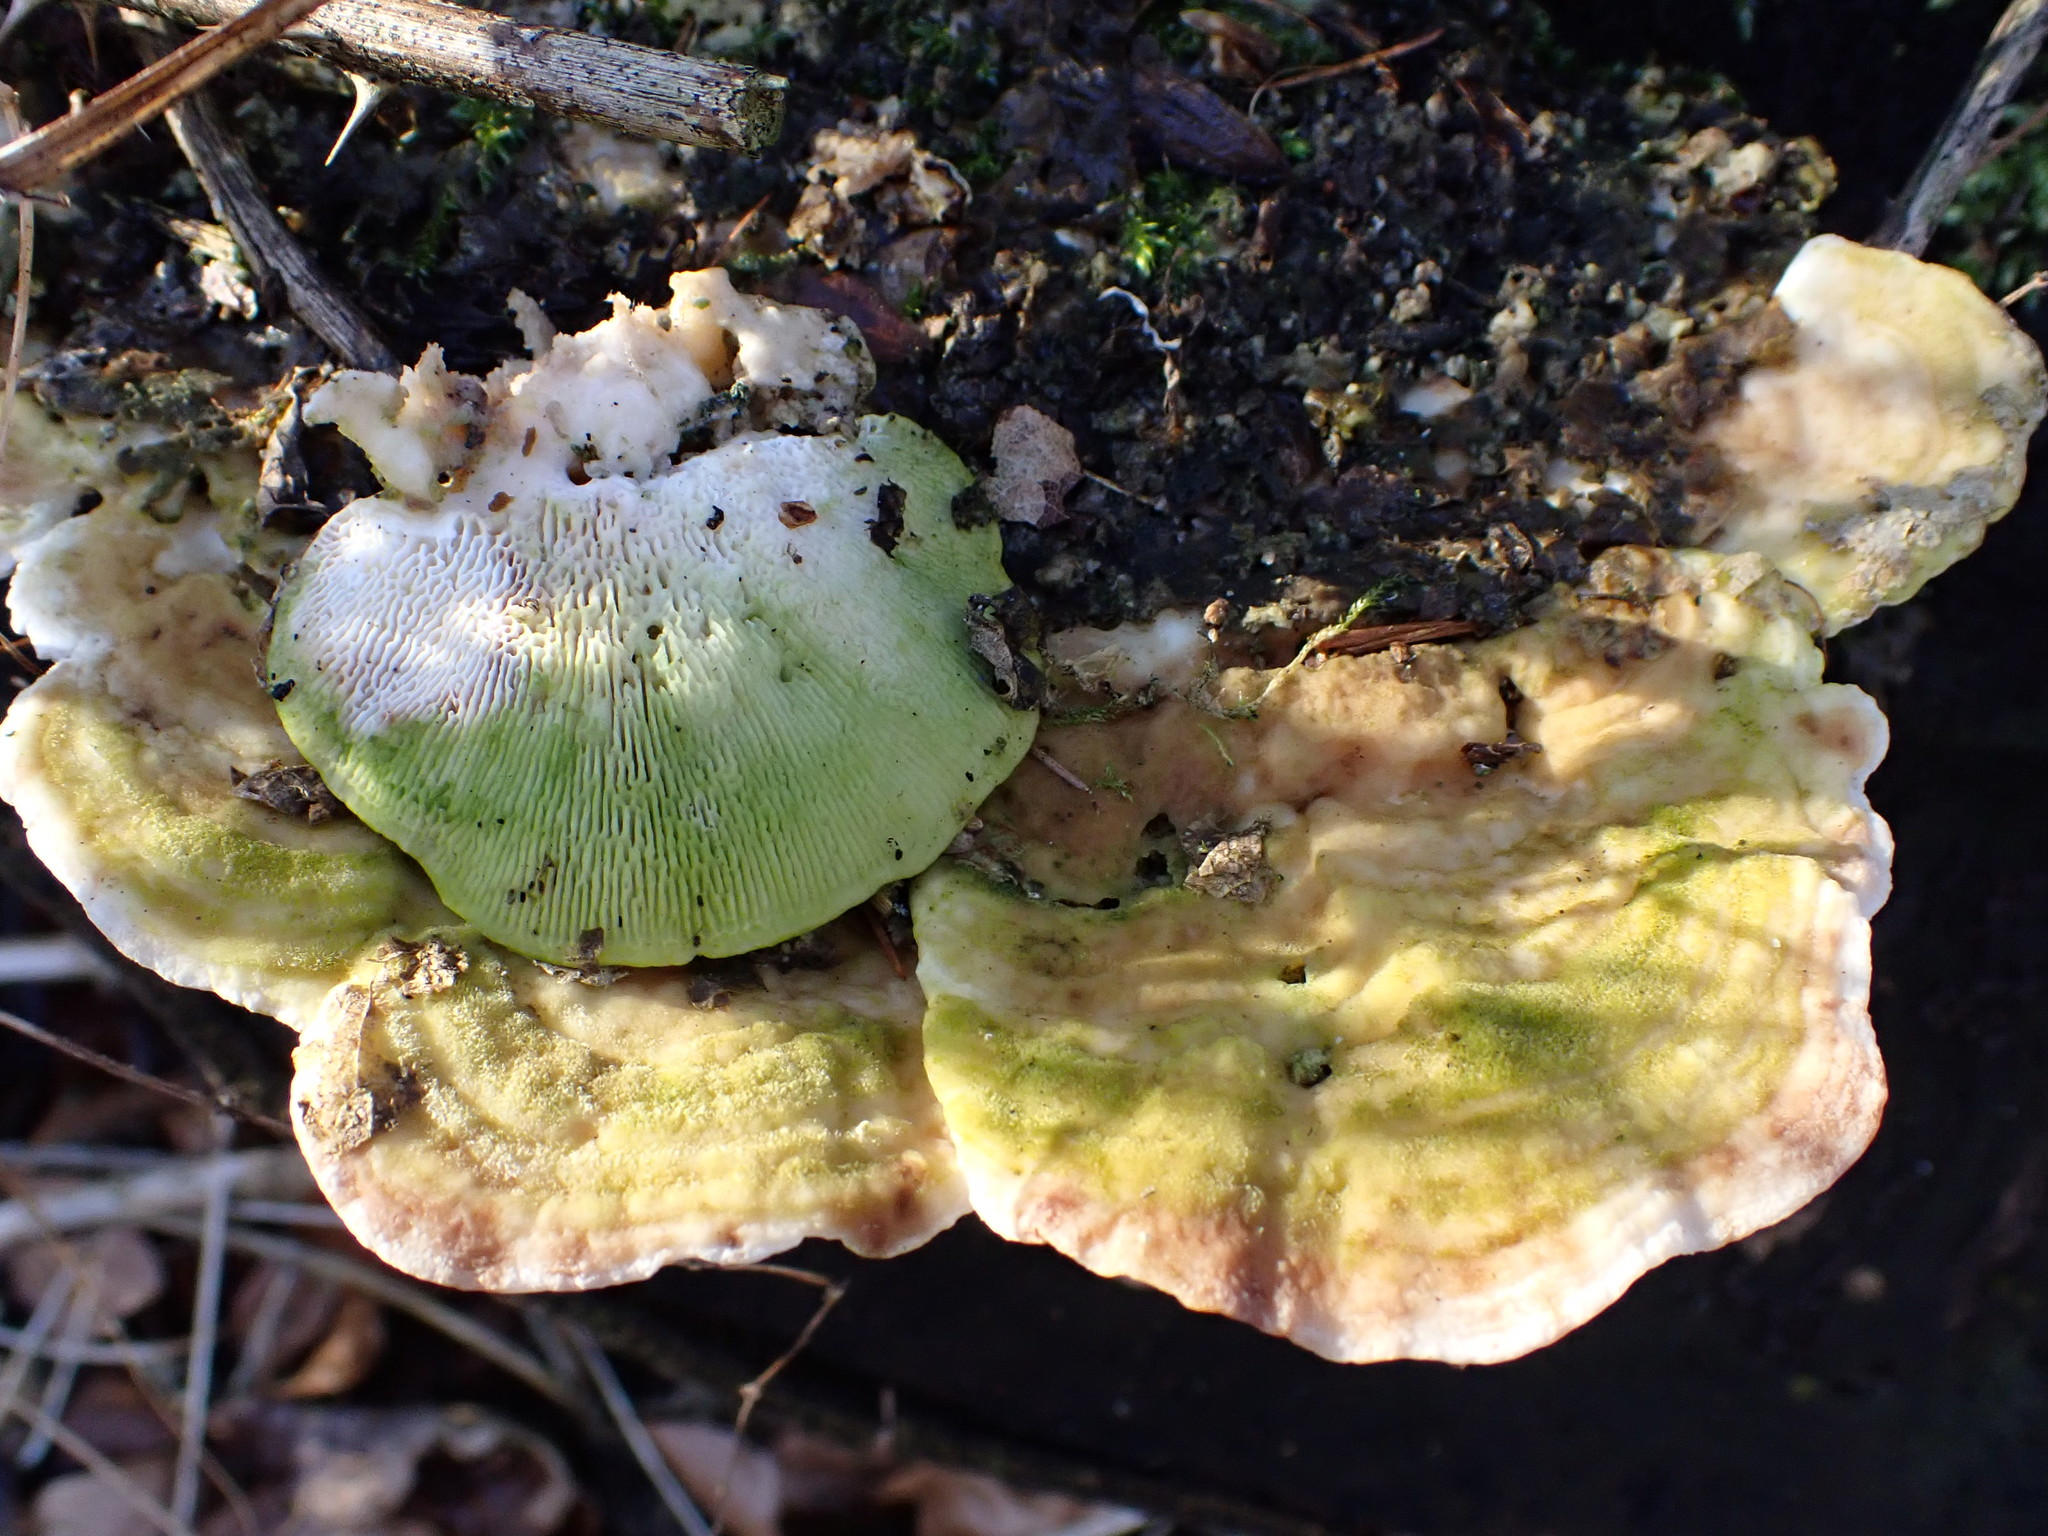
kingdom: Fungi
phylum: Basidiomycota
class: Agaricomycetes
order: Polyporales
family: Polyporaceae
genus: Trametes
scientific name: Trametes gibbosa
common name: Lumpy bracket
